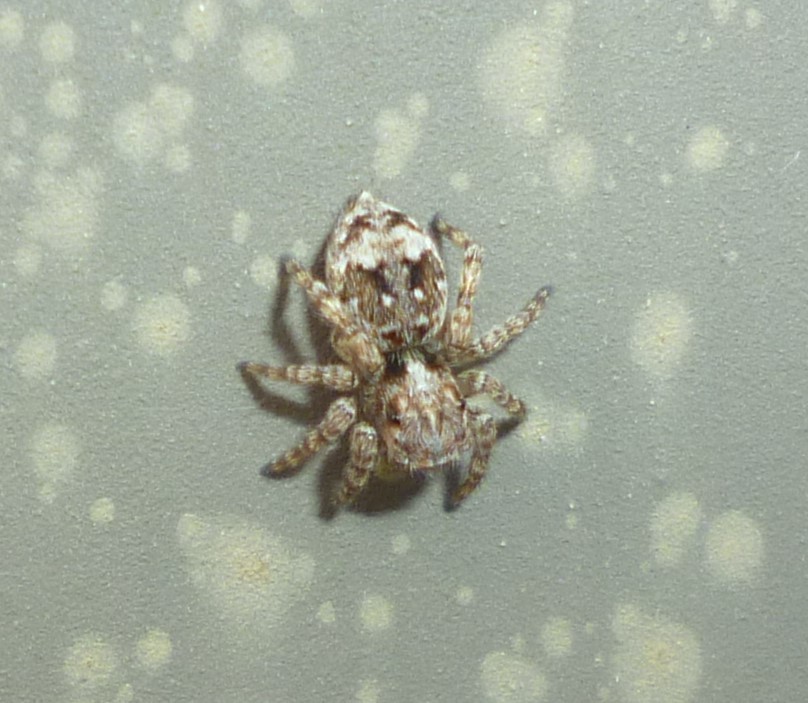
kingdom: Animalia
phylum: Arthropoda
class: Arachnida
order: Araneae
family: Salticidae
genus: Attulus
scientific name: Attulus fasciger
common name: Asiatic wall jumping spider
